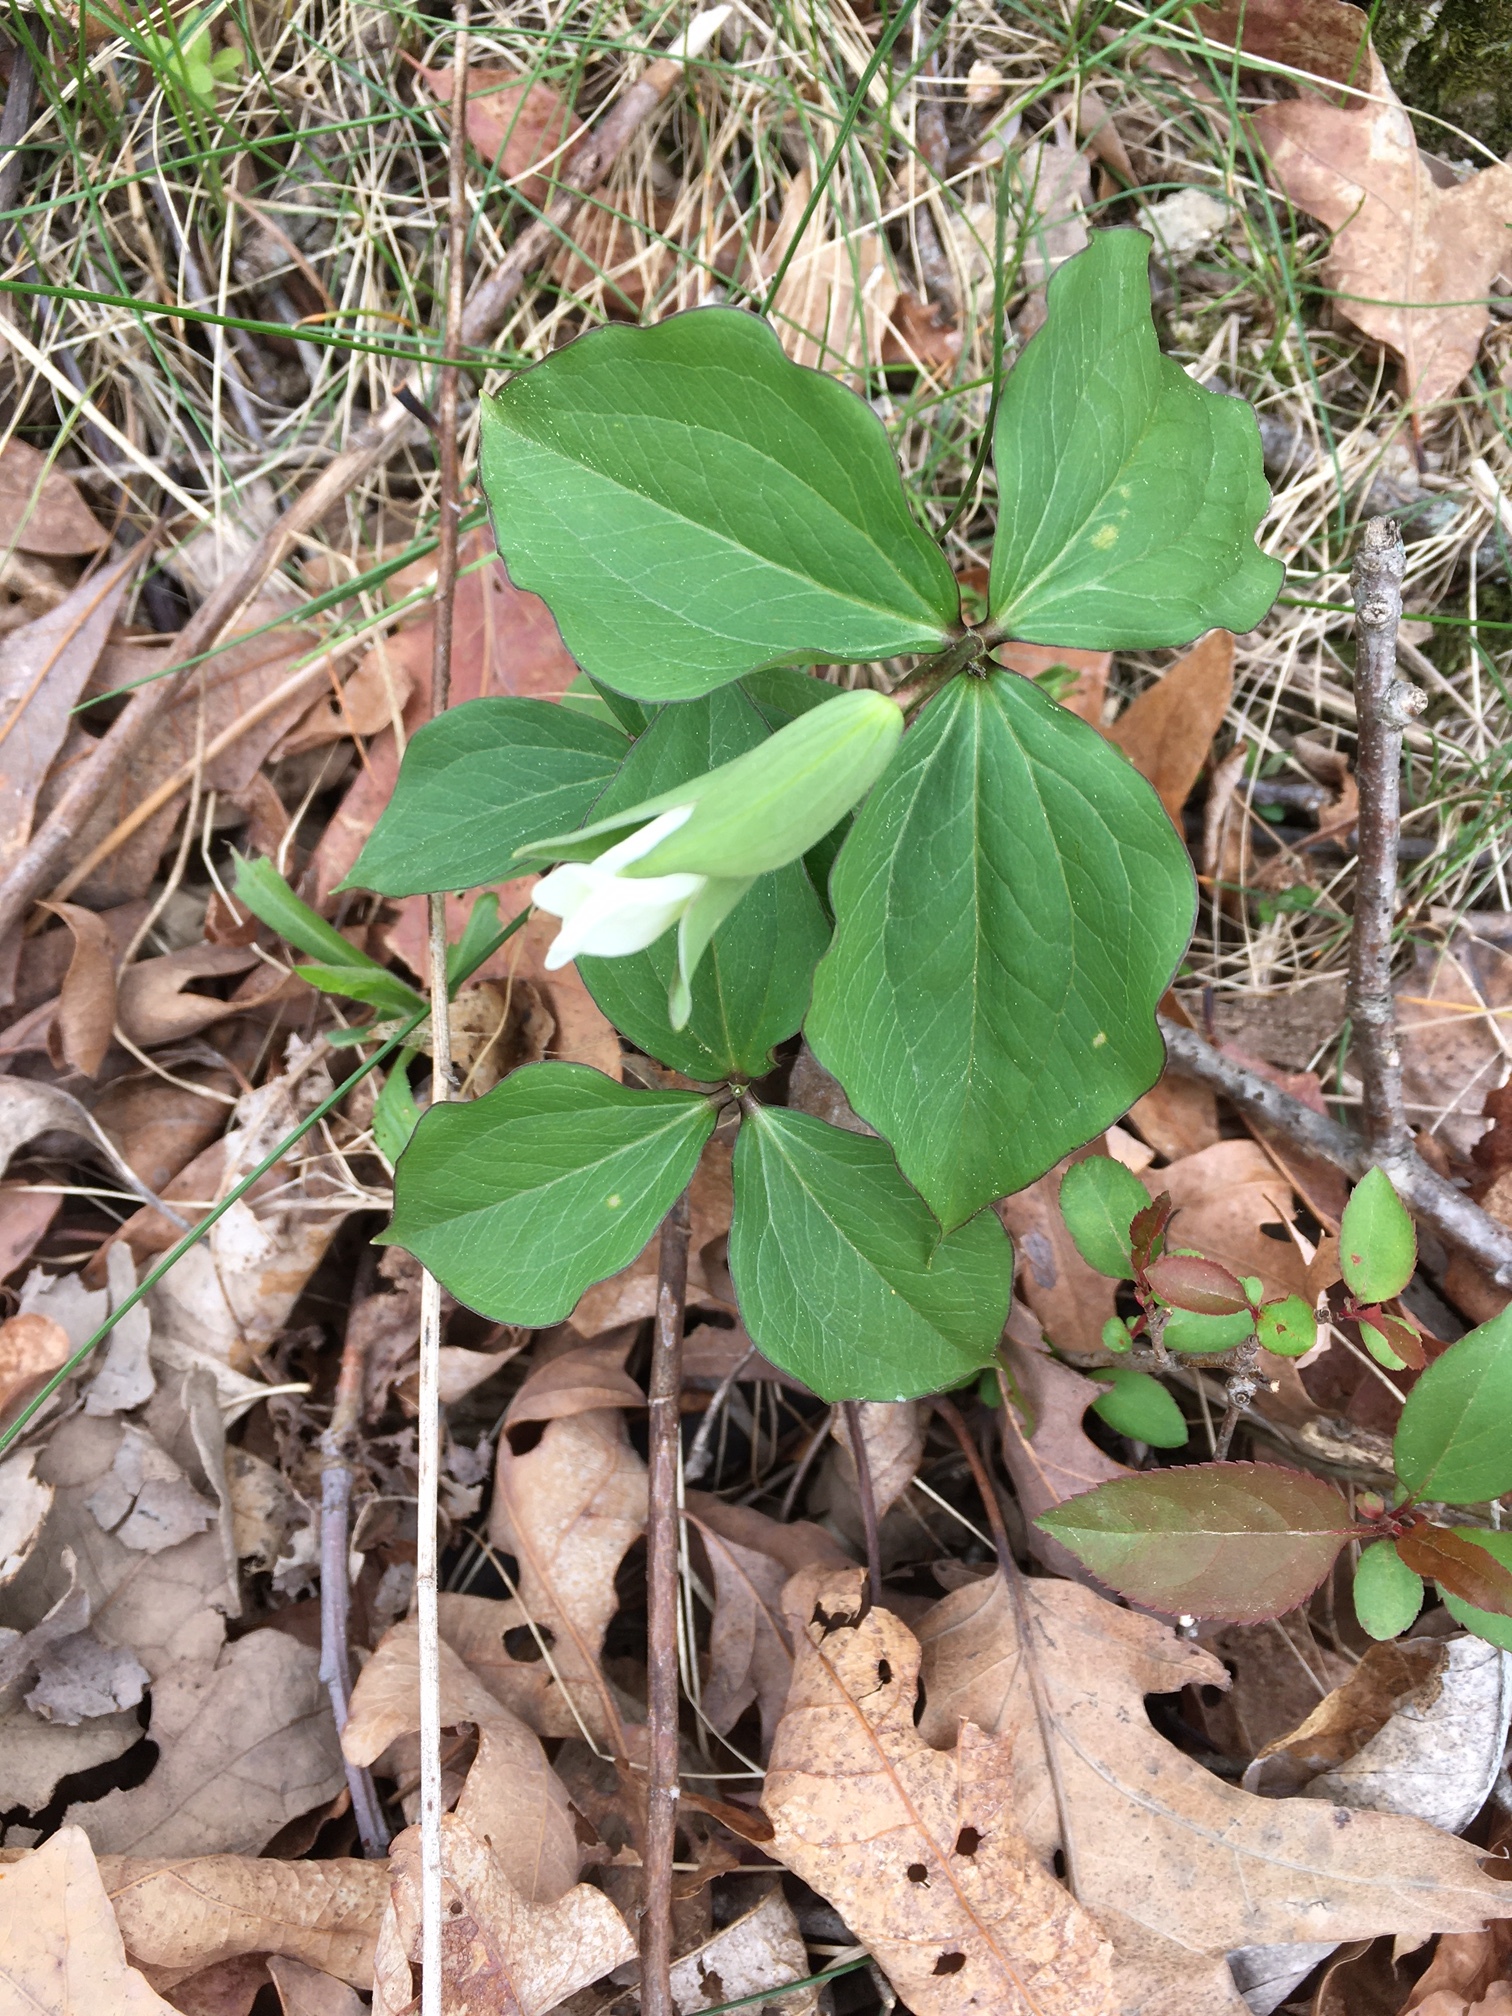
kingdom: Plantae
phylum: Tracheophyta
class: Liliopsida
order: Liliales
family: Melanthiaceae
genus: Trillium
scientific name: Trillium grandiflorum
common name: Great white trillium
